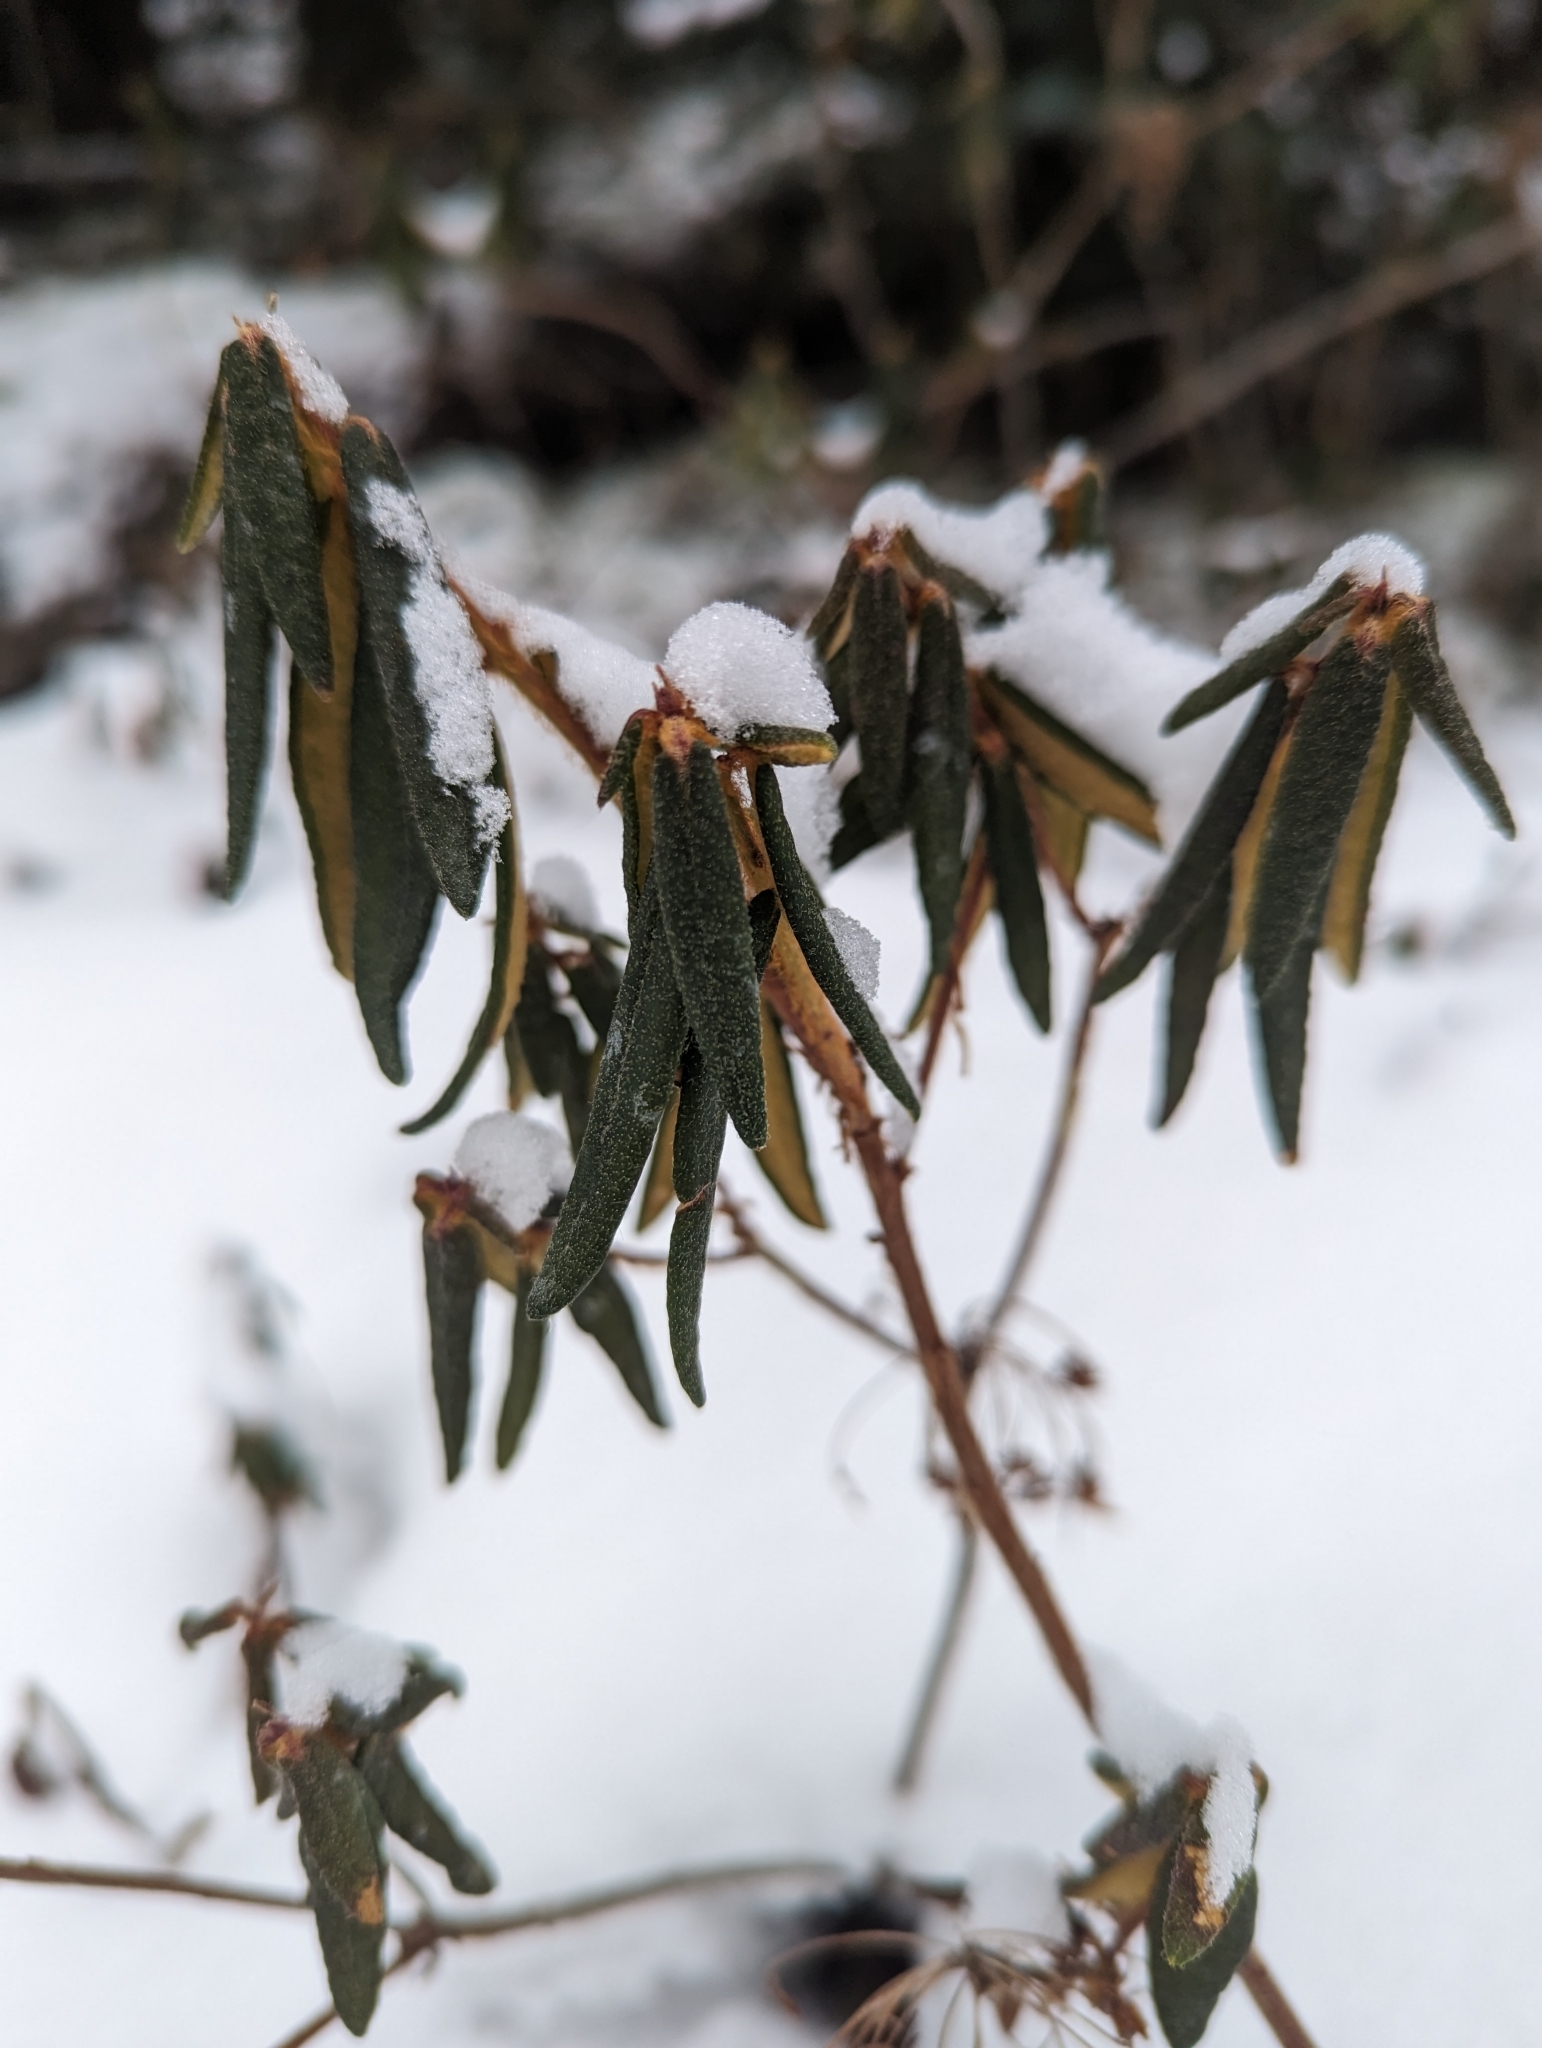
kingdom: Plantae
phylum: Tracheophyta
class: Magnoliopsida
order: Ericales
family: Ericaceae
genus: Rhododendron
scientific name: Rhododendron groenlandicum
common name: Bog labrador tea
